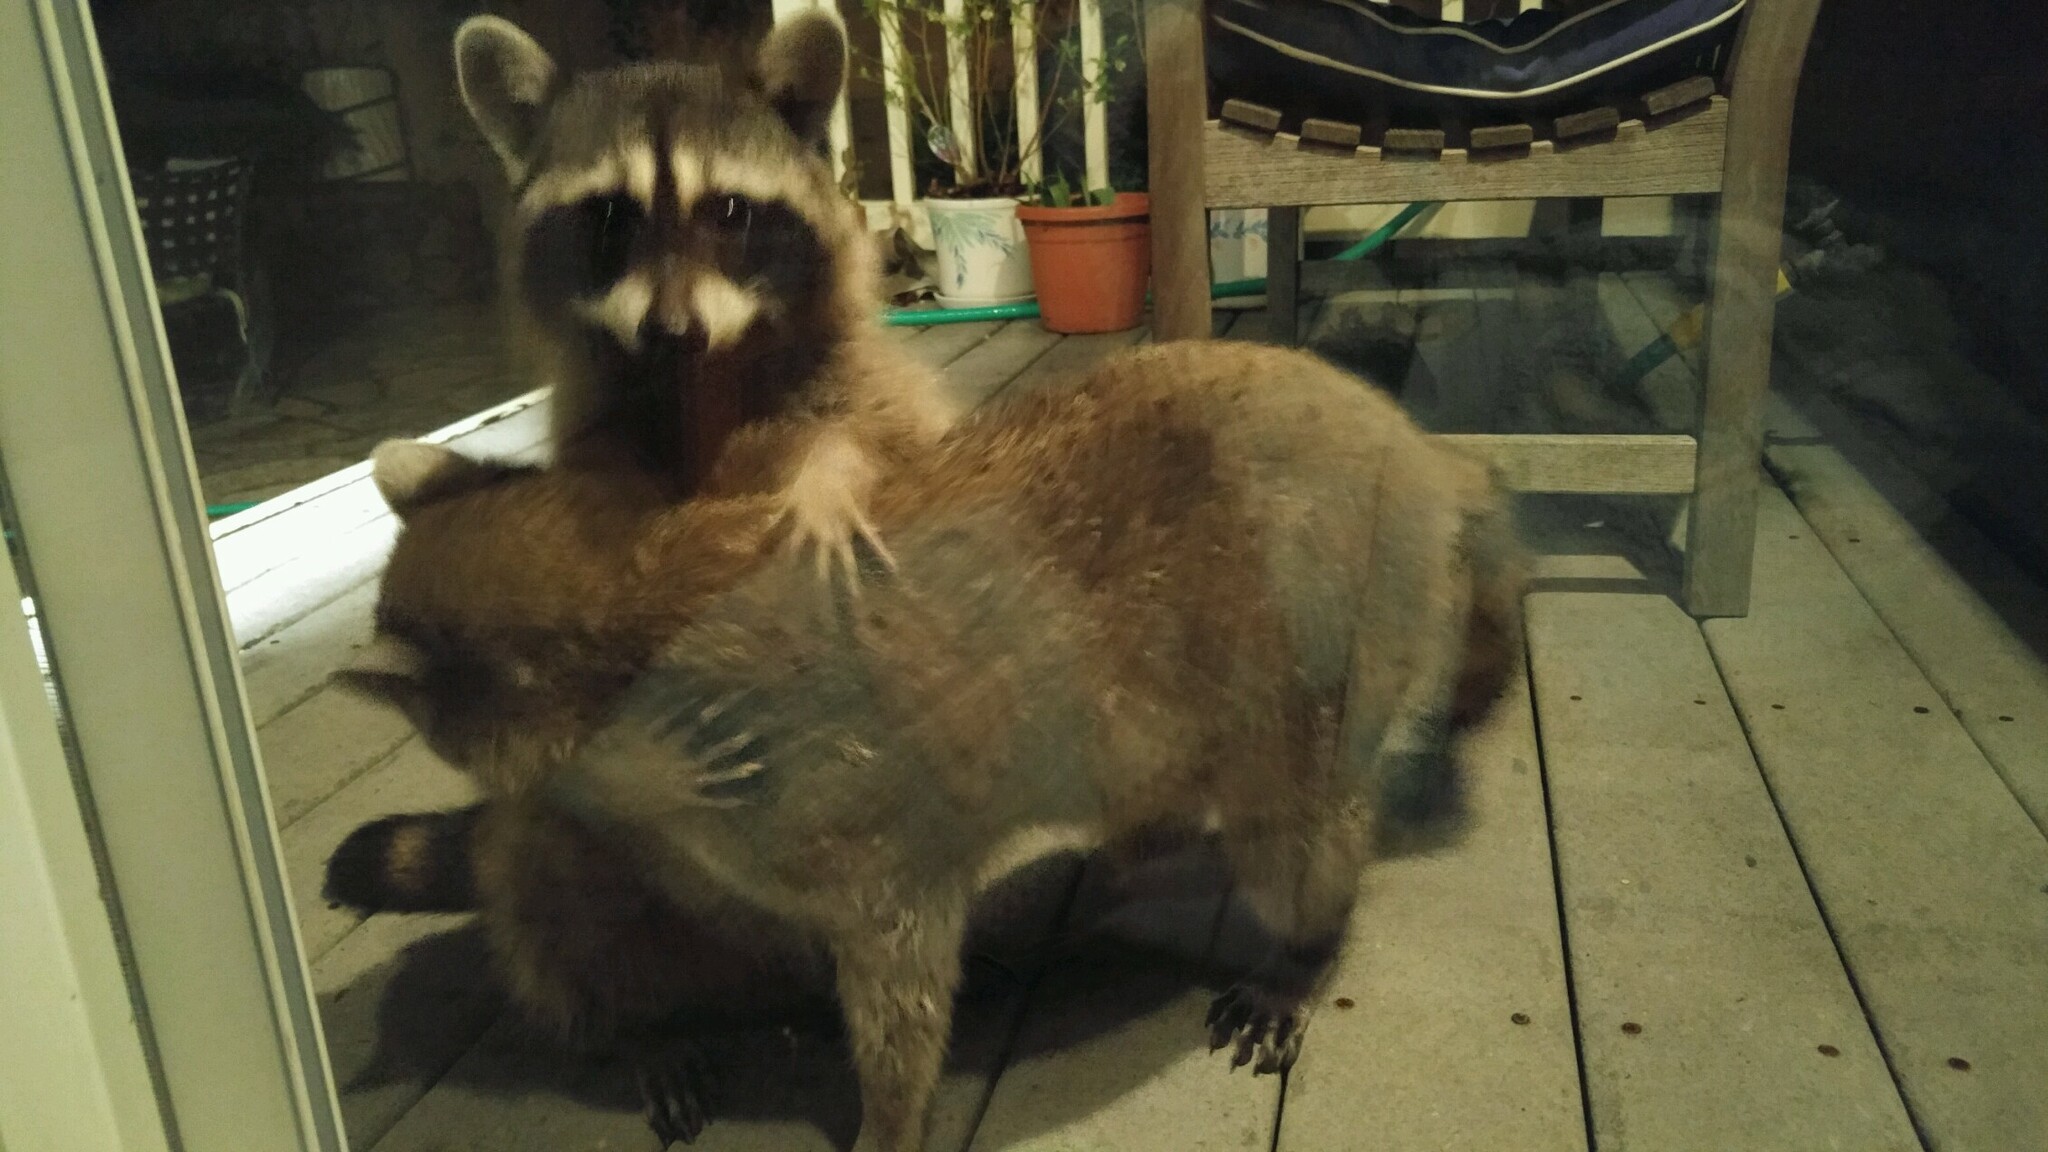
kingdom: Animalia
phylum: Chordata
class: Mammalia
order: Carnivora
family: Procyonidae
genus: Procyon
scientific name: Procyon lotor
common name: Raccoon
